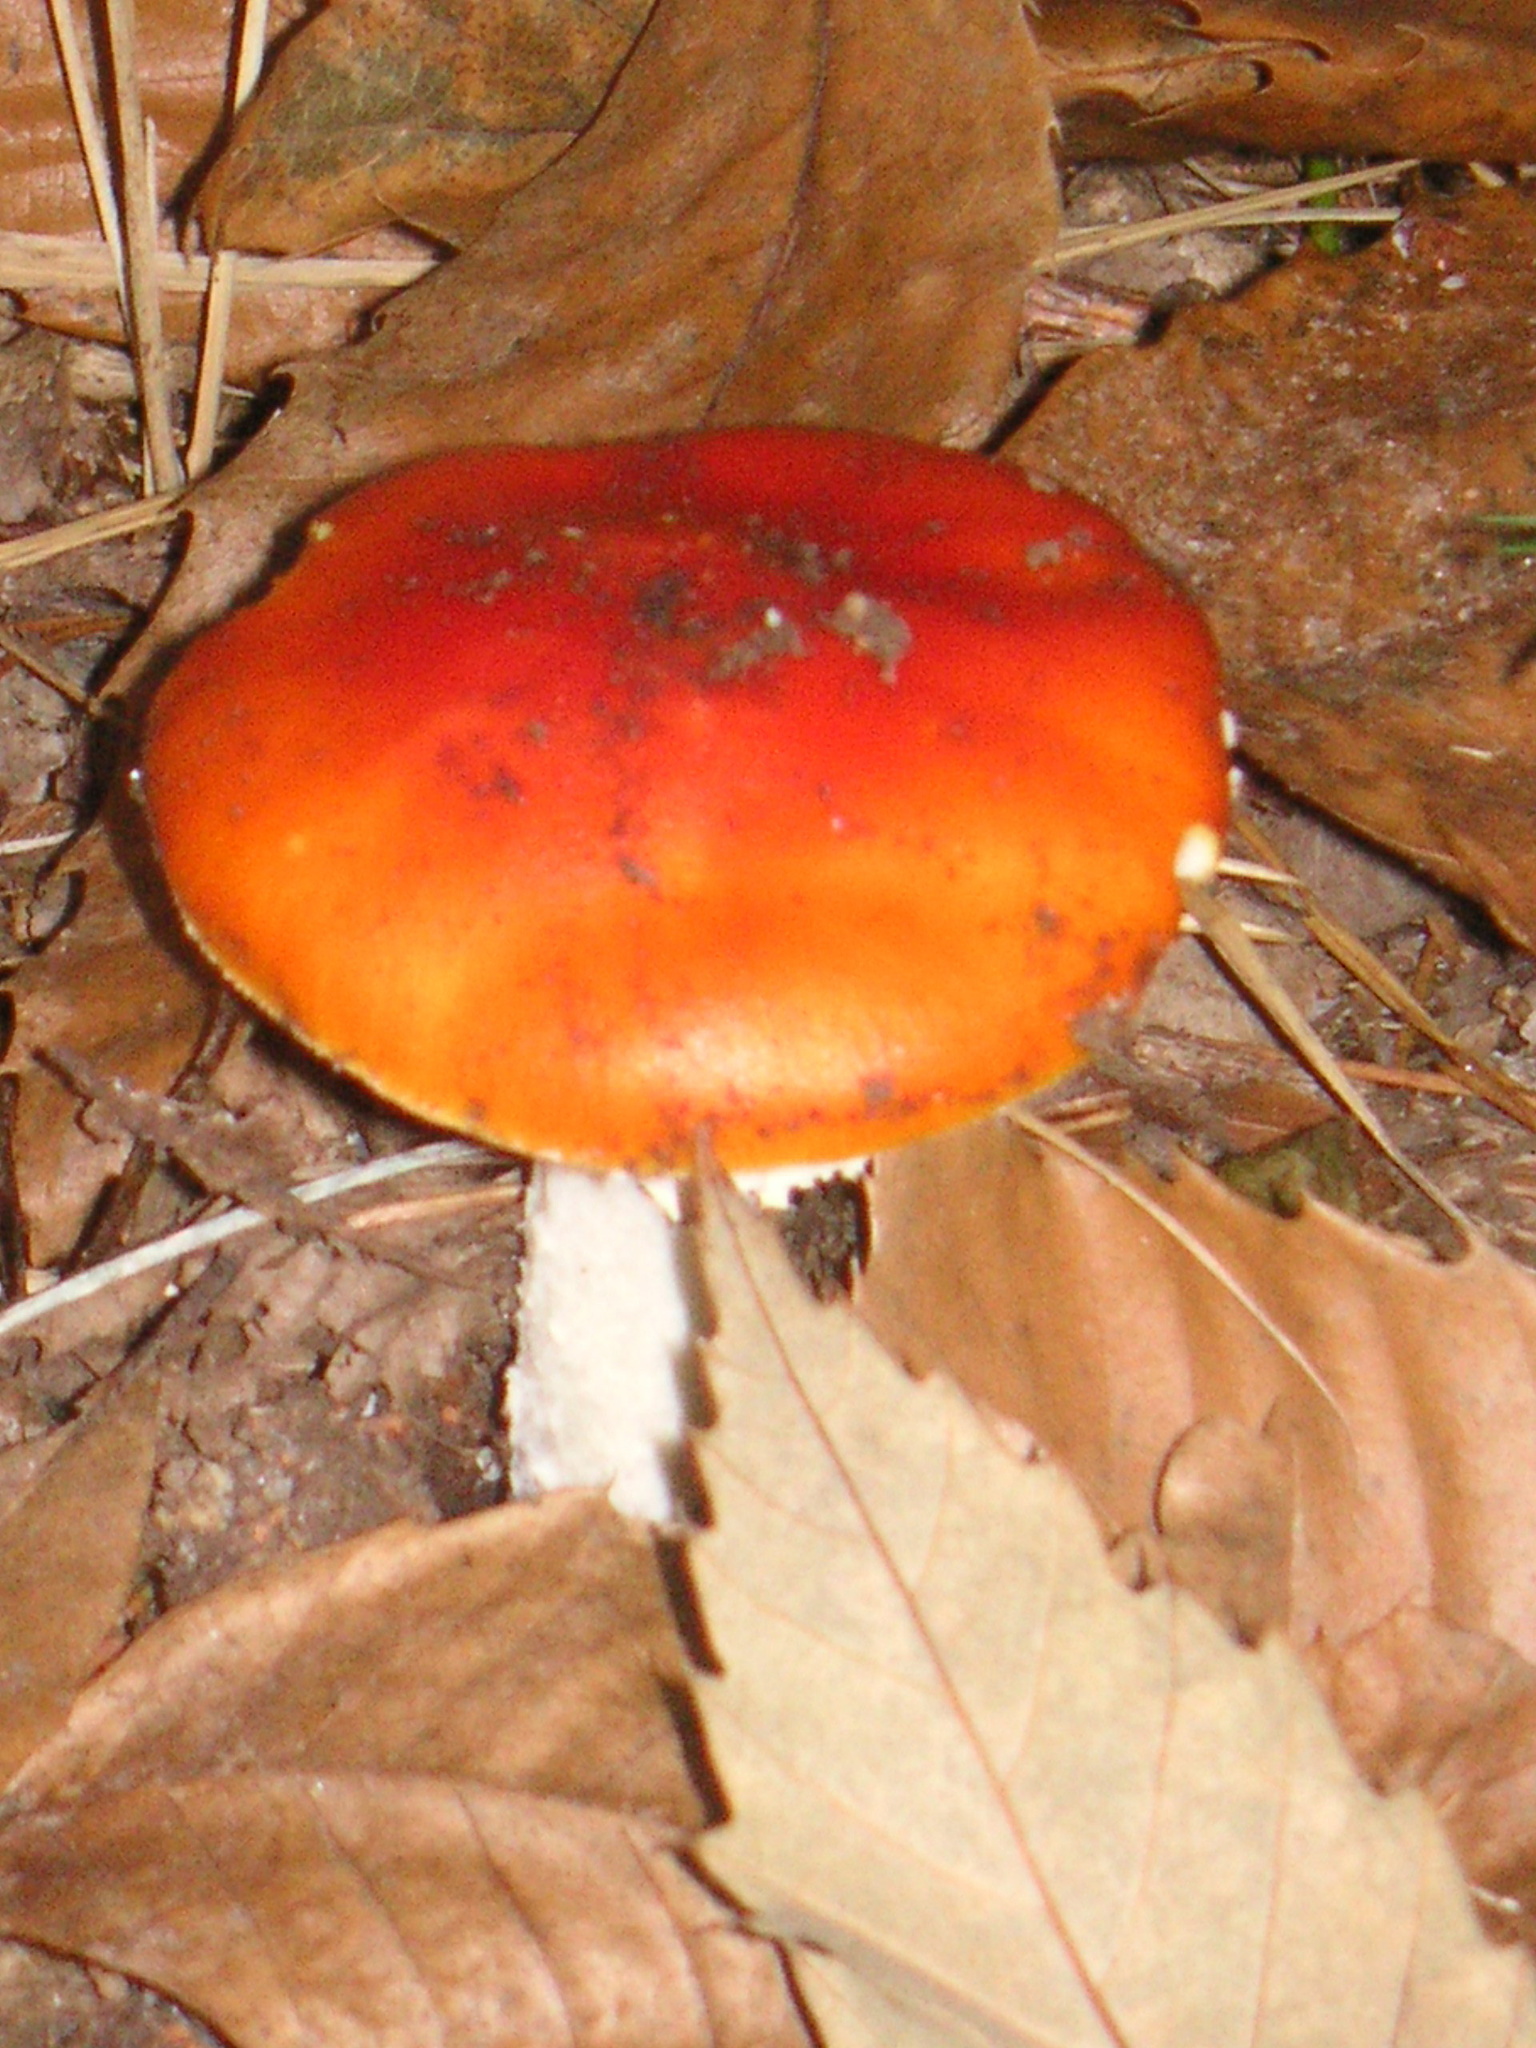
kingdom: Fungi
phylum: Basidiomycota
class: Agaricomycetes
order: Agaricales
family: Amanitaceae
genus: Amanita
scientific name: Amanita muscaria
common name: Fly agaric
